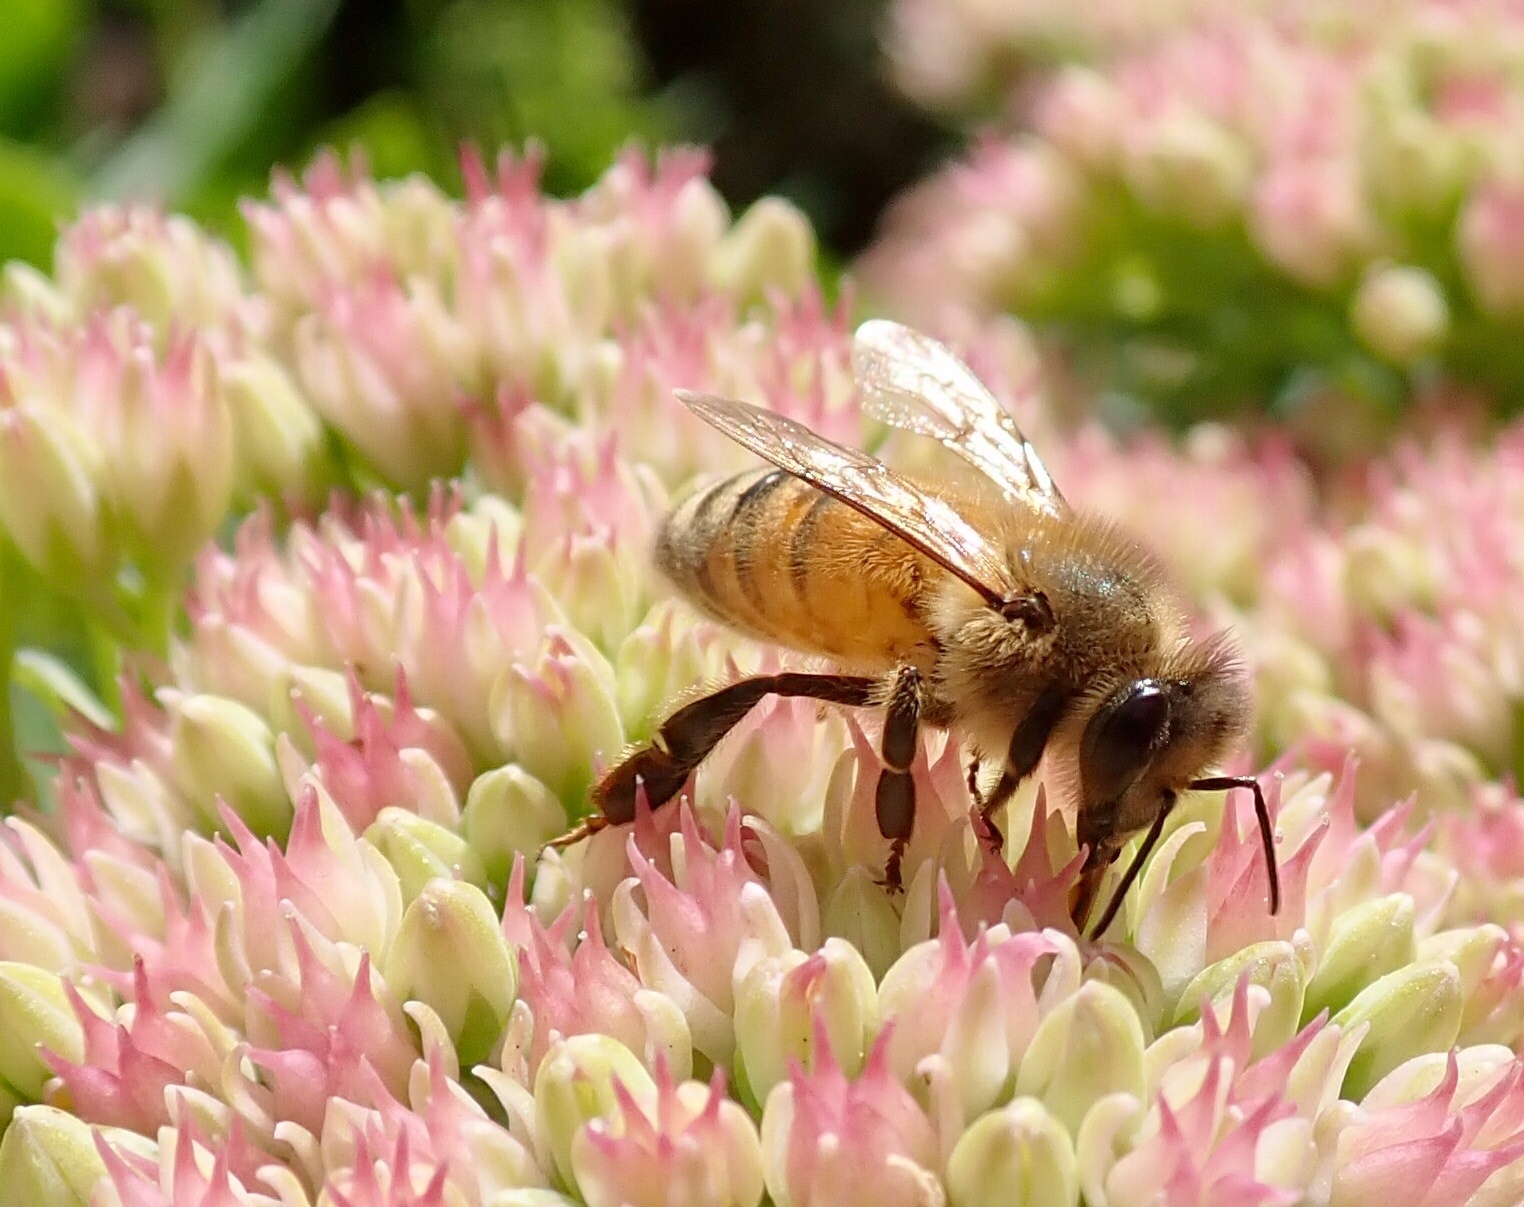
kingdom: Animalia
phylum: Arthropoda
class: Insecta
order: Hymenoptera
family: Apidae
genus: Apis
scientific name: Apis mellifera
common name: Honey bee
